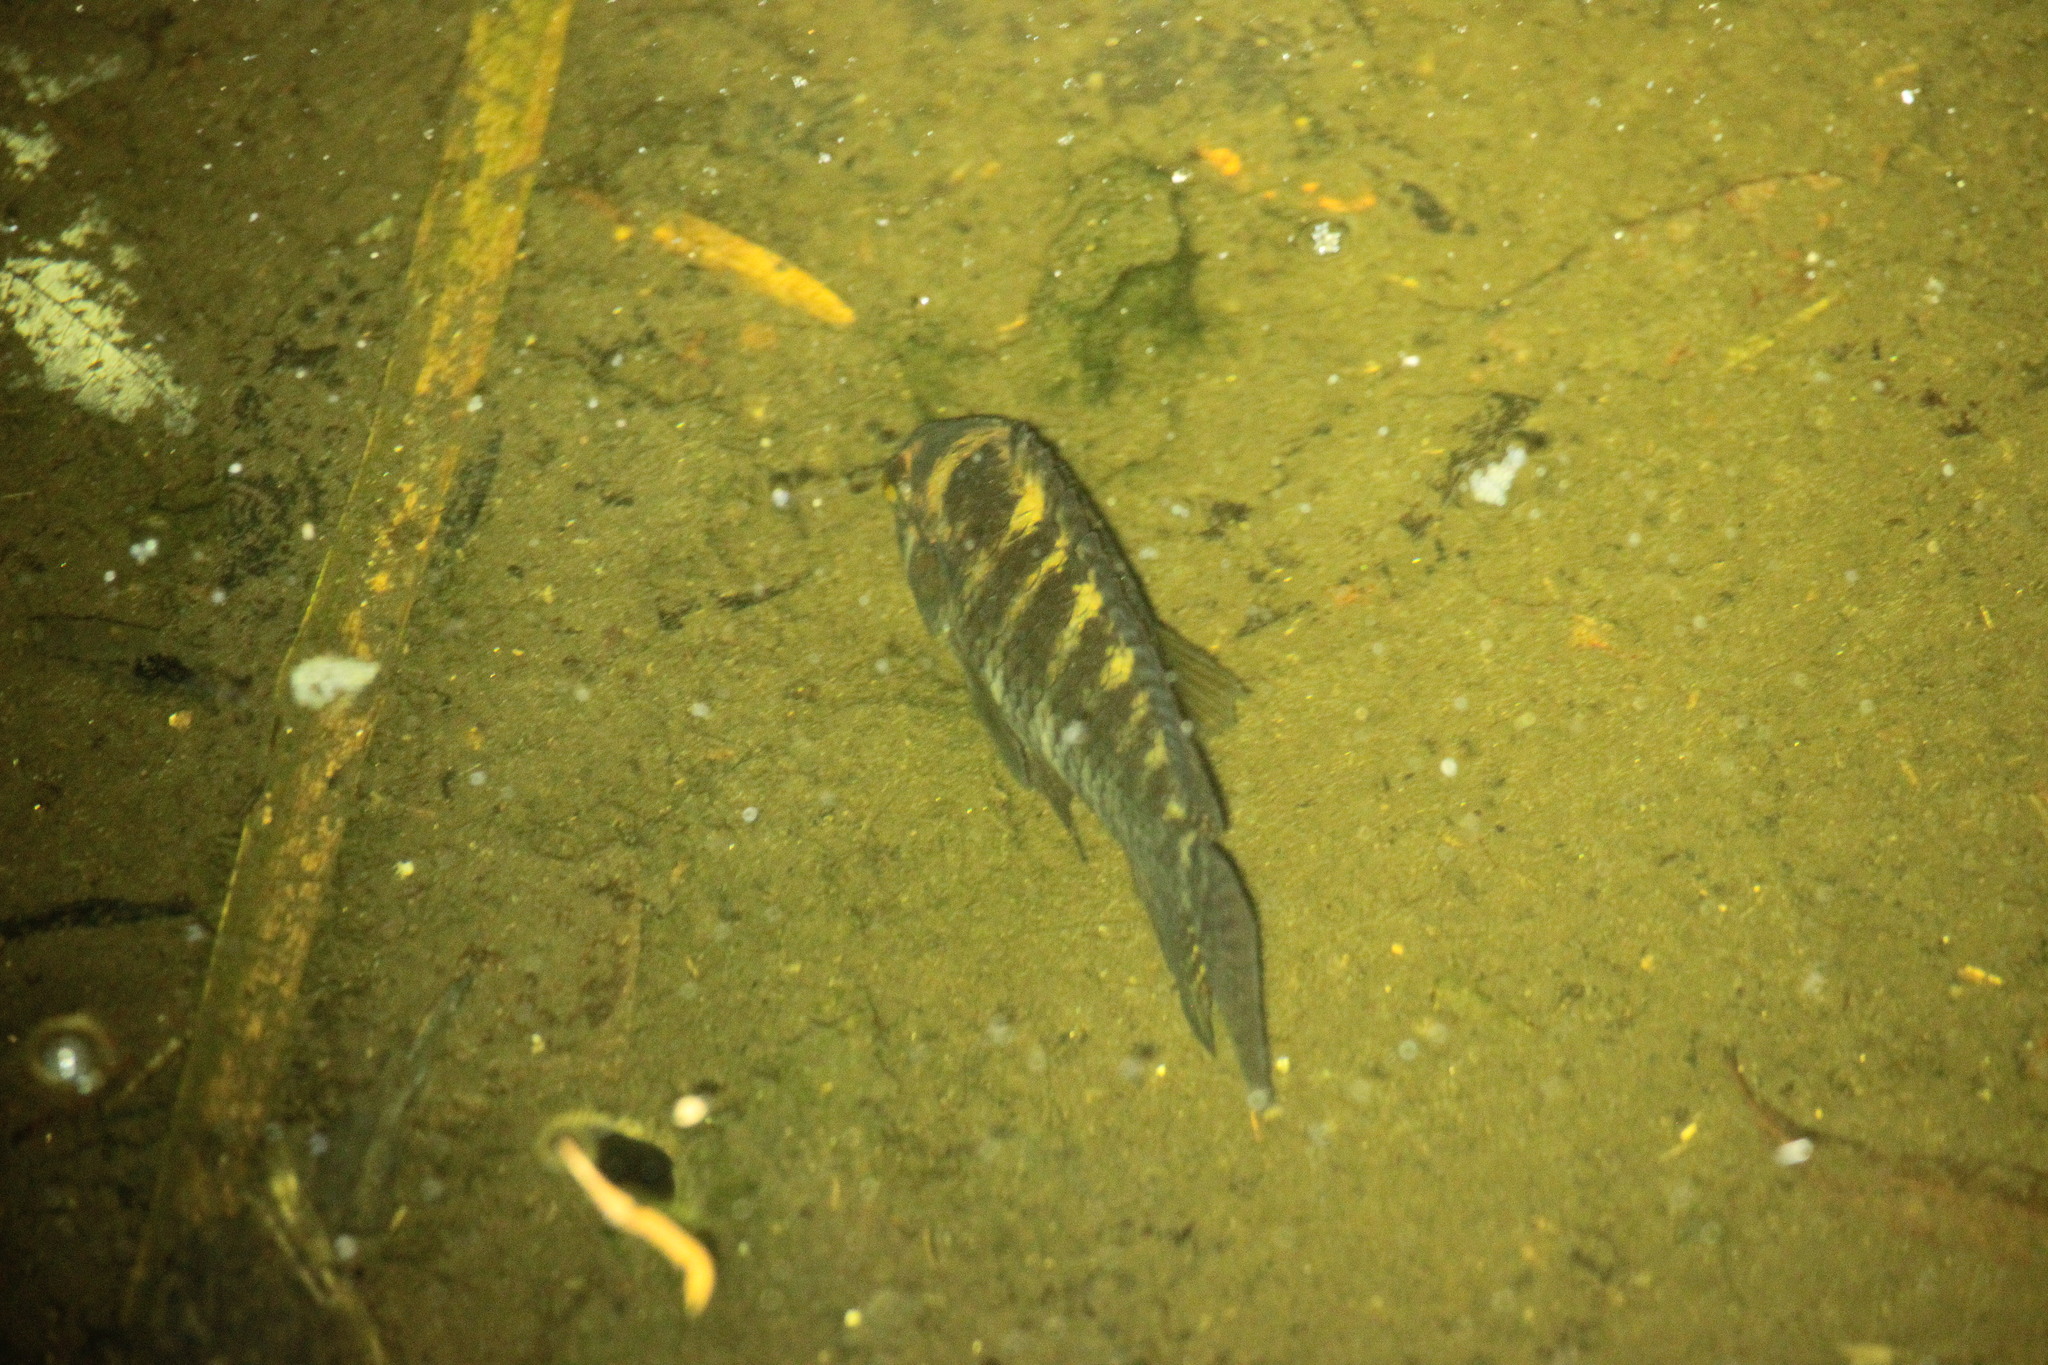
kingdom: Animalia
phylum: Chordata
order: Perciformes
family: Cichlidae
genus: Cichlasoma
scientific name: Cichlasoma dimerus
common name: Chanchita
